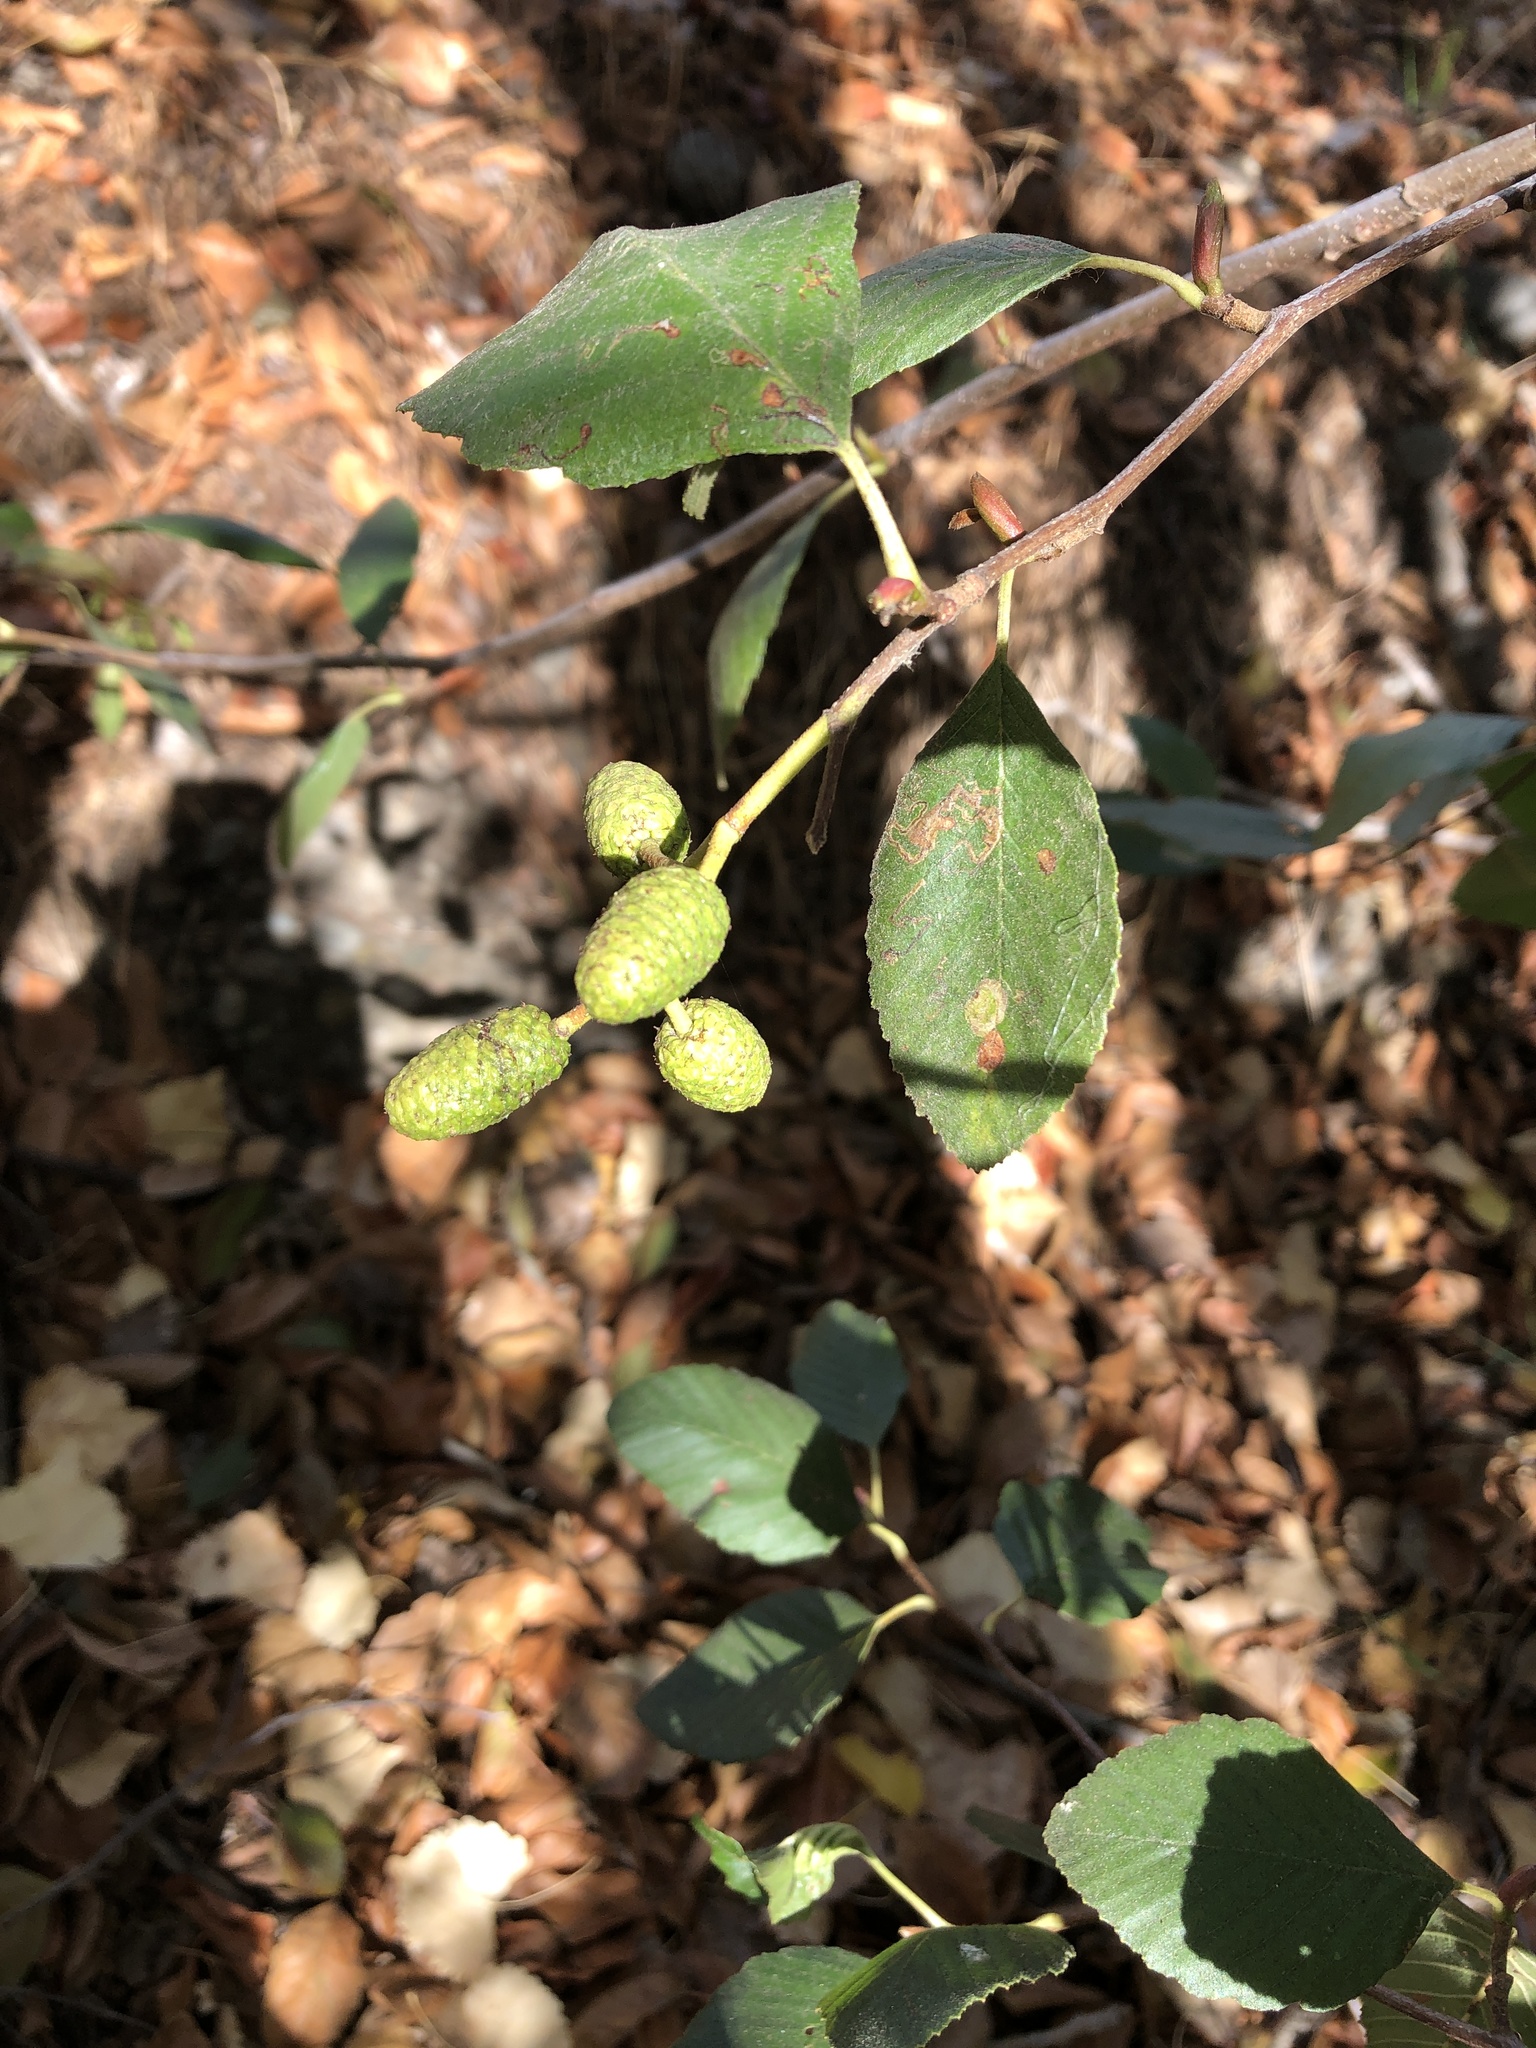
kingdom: Plantae
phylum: Tracheophyta
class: Magnoliopsida
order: Fagales
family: Betulaceae
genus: Alnus
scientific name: Alnus rhombifolia
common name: California alder
